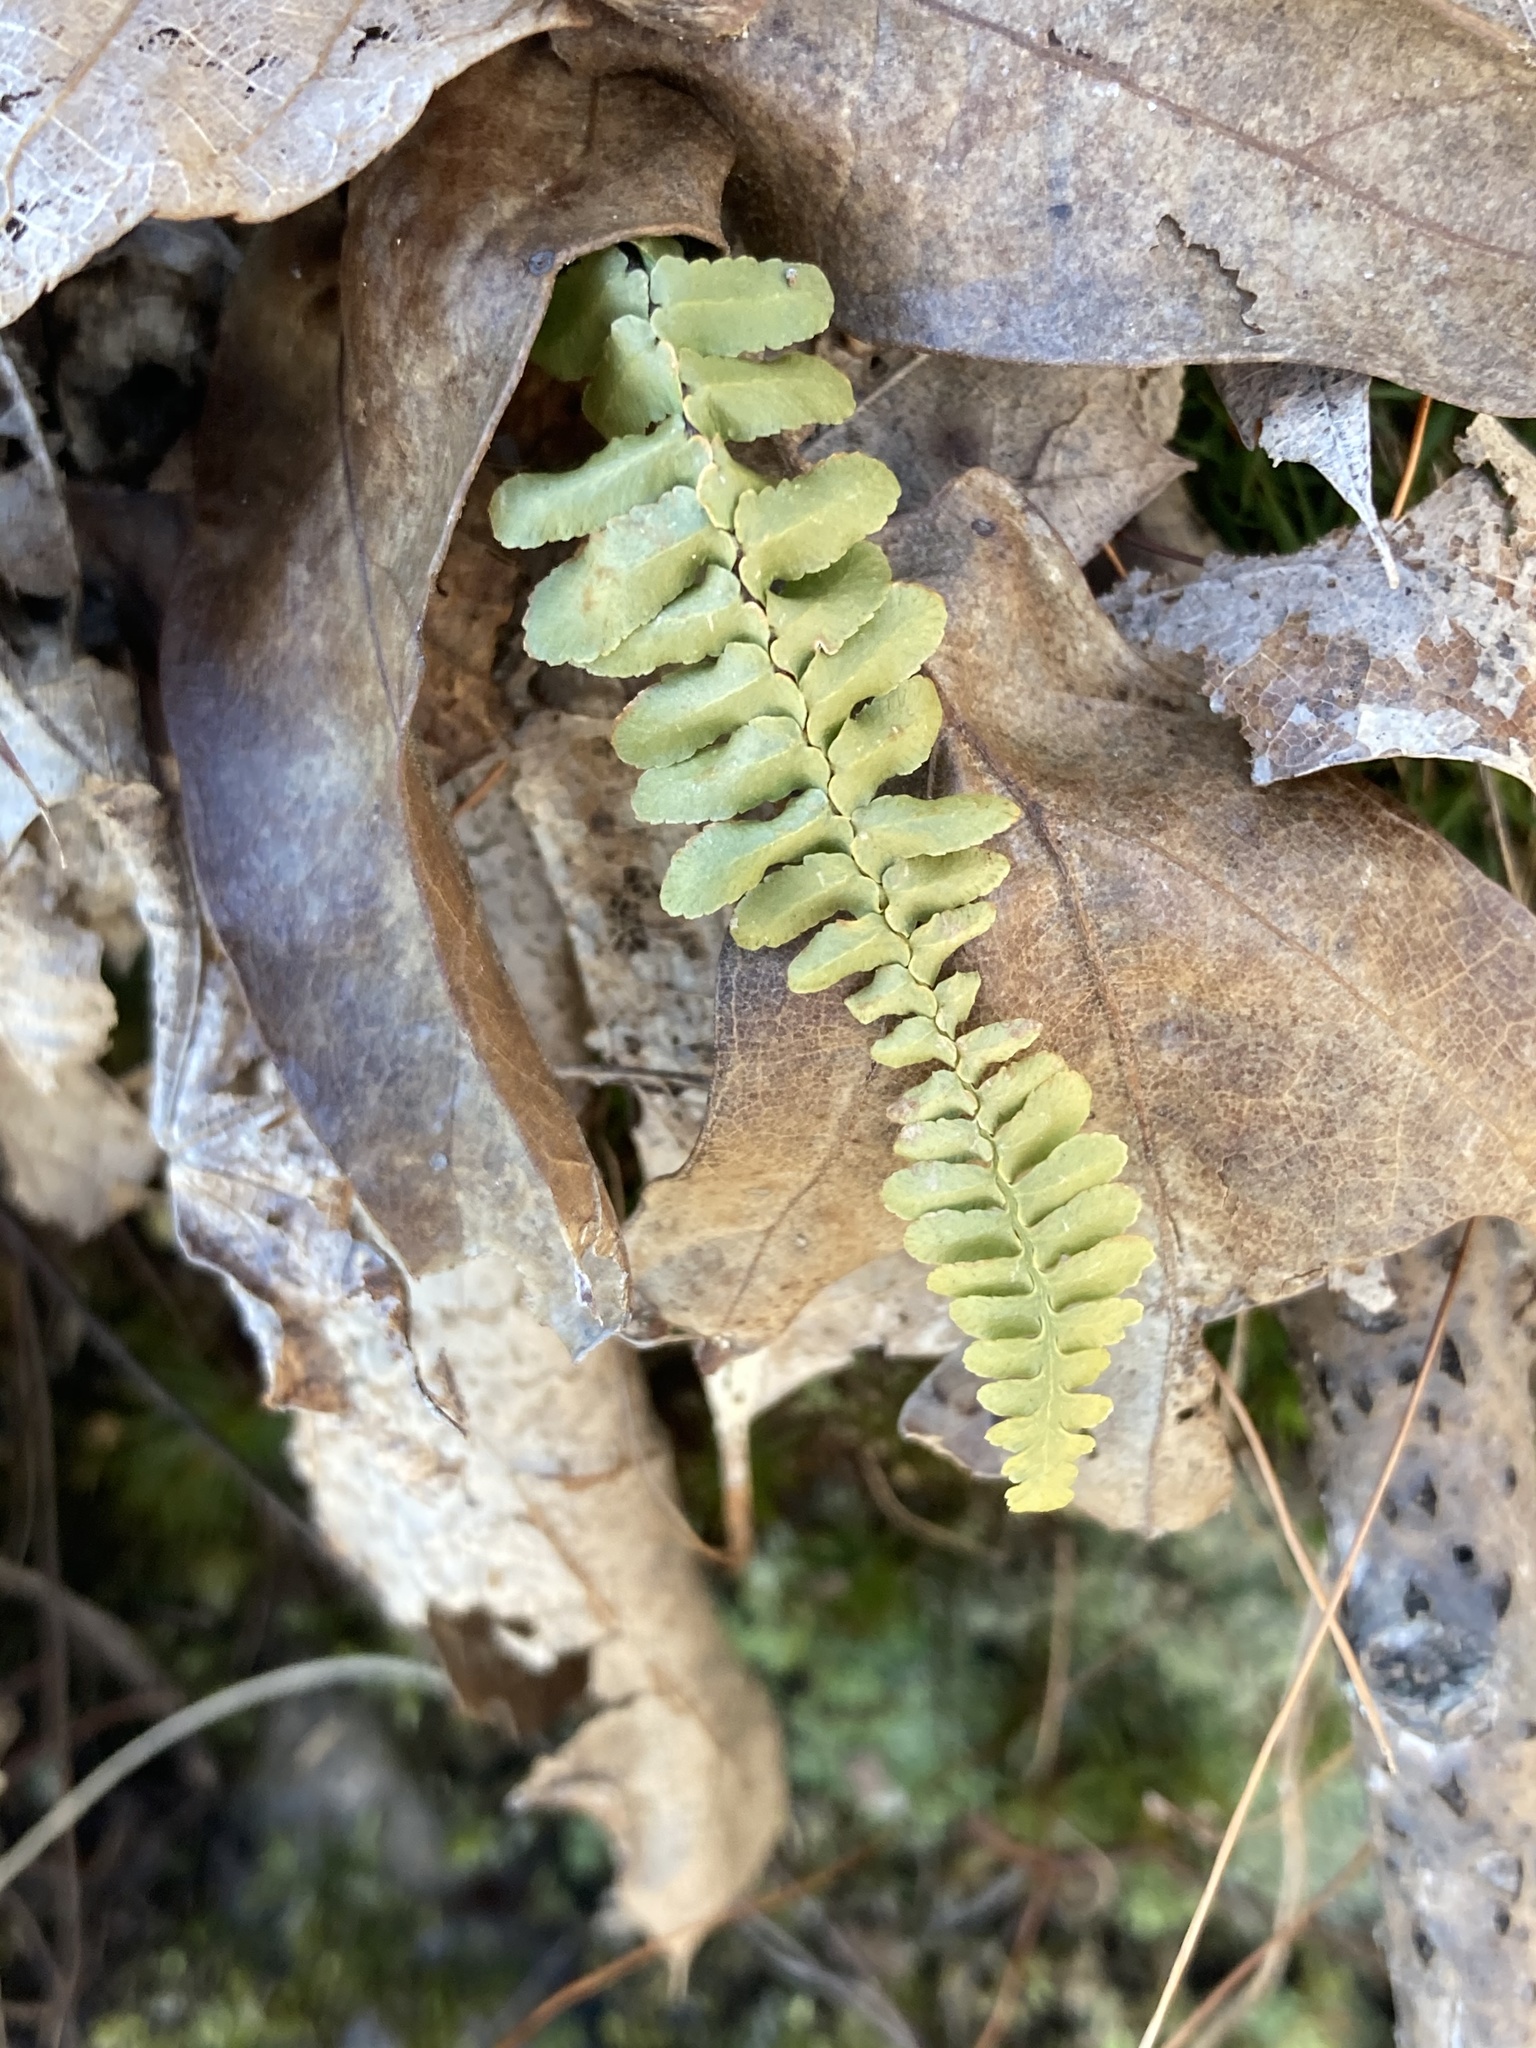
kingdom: Plantae
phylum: Tracheophyta
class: Polypodiopsida
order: Polypodiales
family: Aspleniaceae
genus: Asplenium
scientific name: Asplenium platyneuron
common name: Ebony spleenwort
